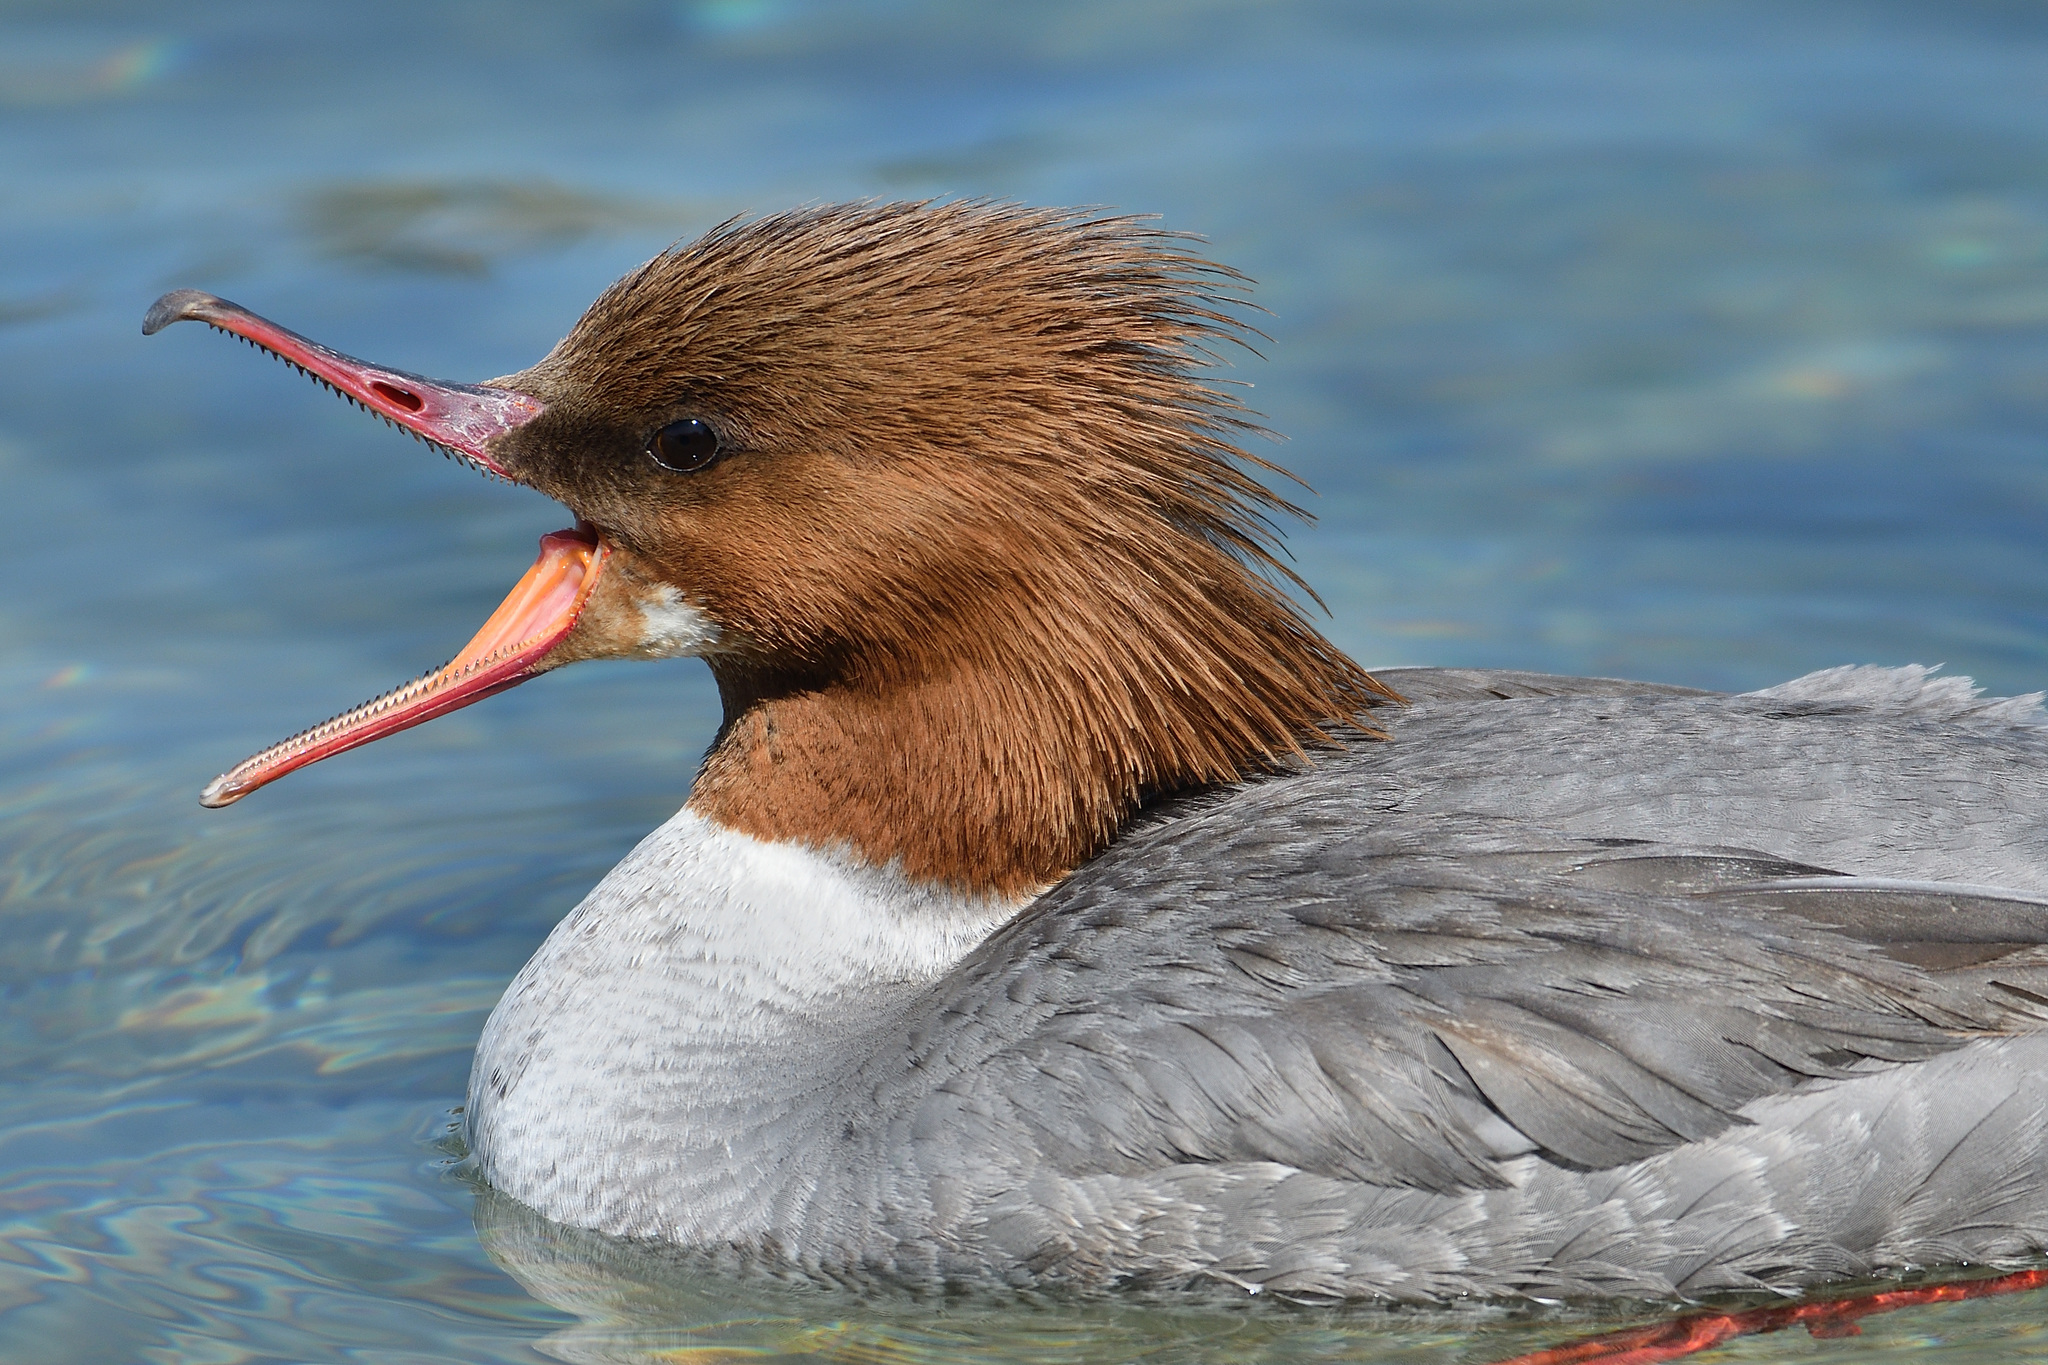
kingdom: Animalia
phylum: Chordata
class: Aves
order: Anseriformes
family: Anatidae
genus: Mergus
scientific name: Mergus merganser
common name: Common merganser
